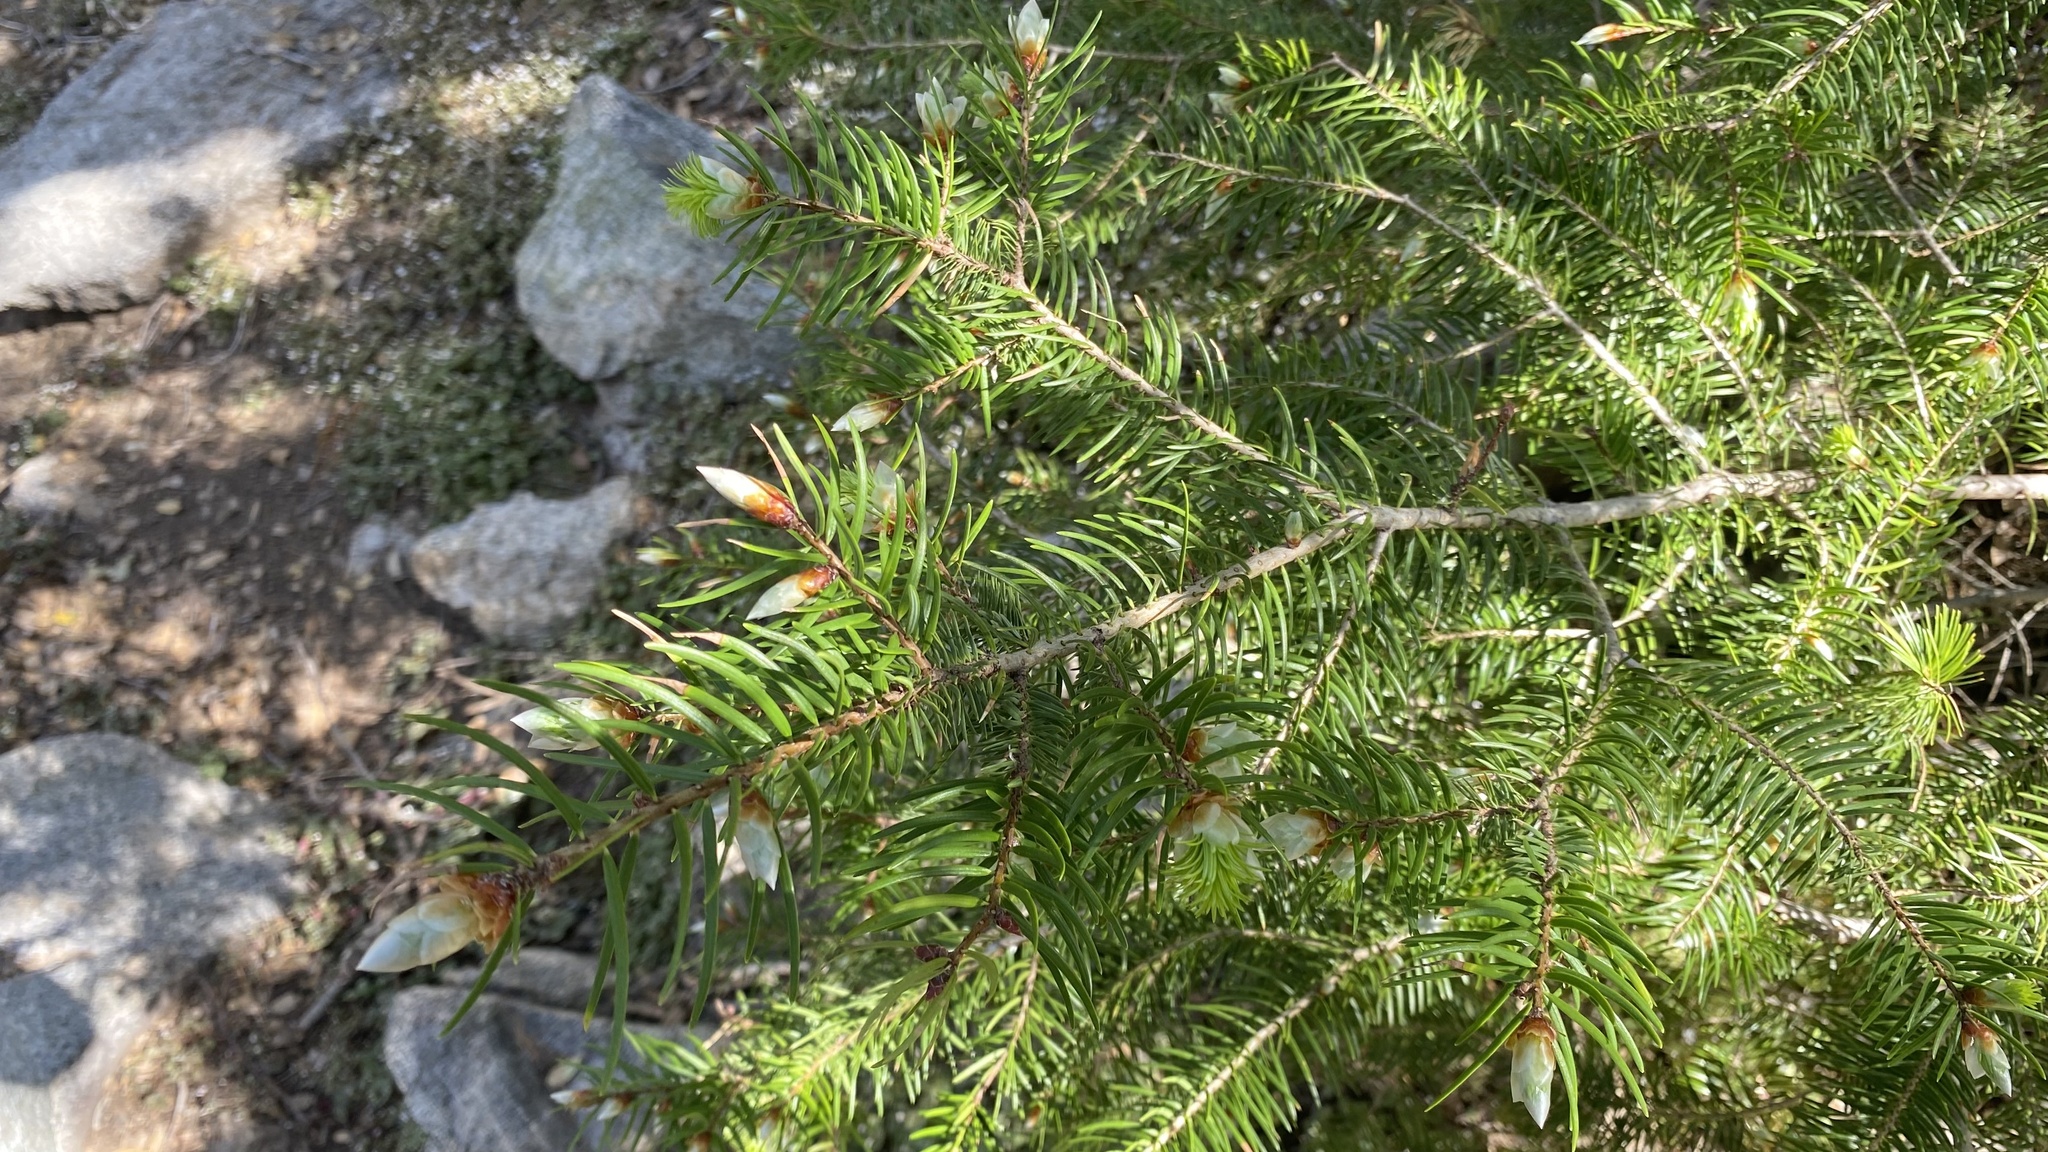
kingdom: Plantae
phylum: Tracheophyta
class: Pinopsida
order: Pinales
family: Pinaceae
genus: Pseudotsuga
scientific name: Pseudotsuga macrocarpa
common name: Big-cone douglas-fir
